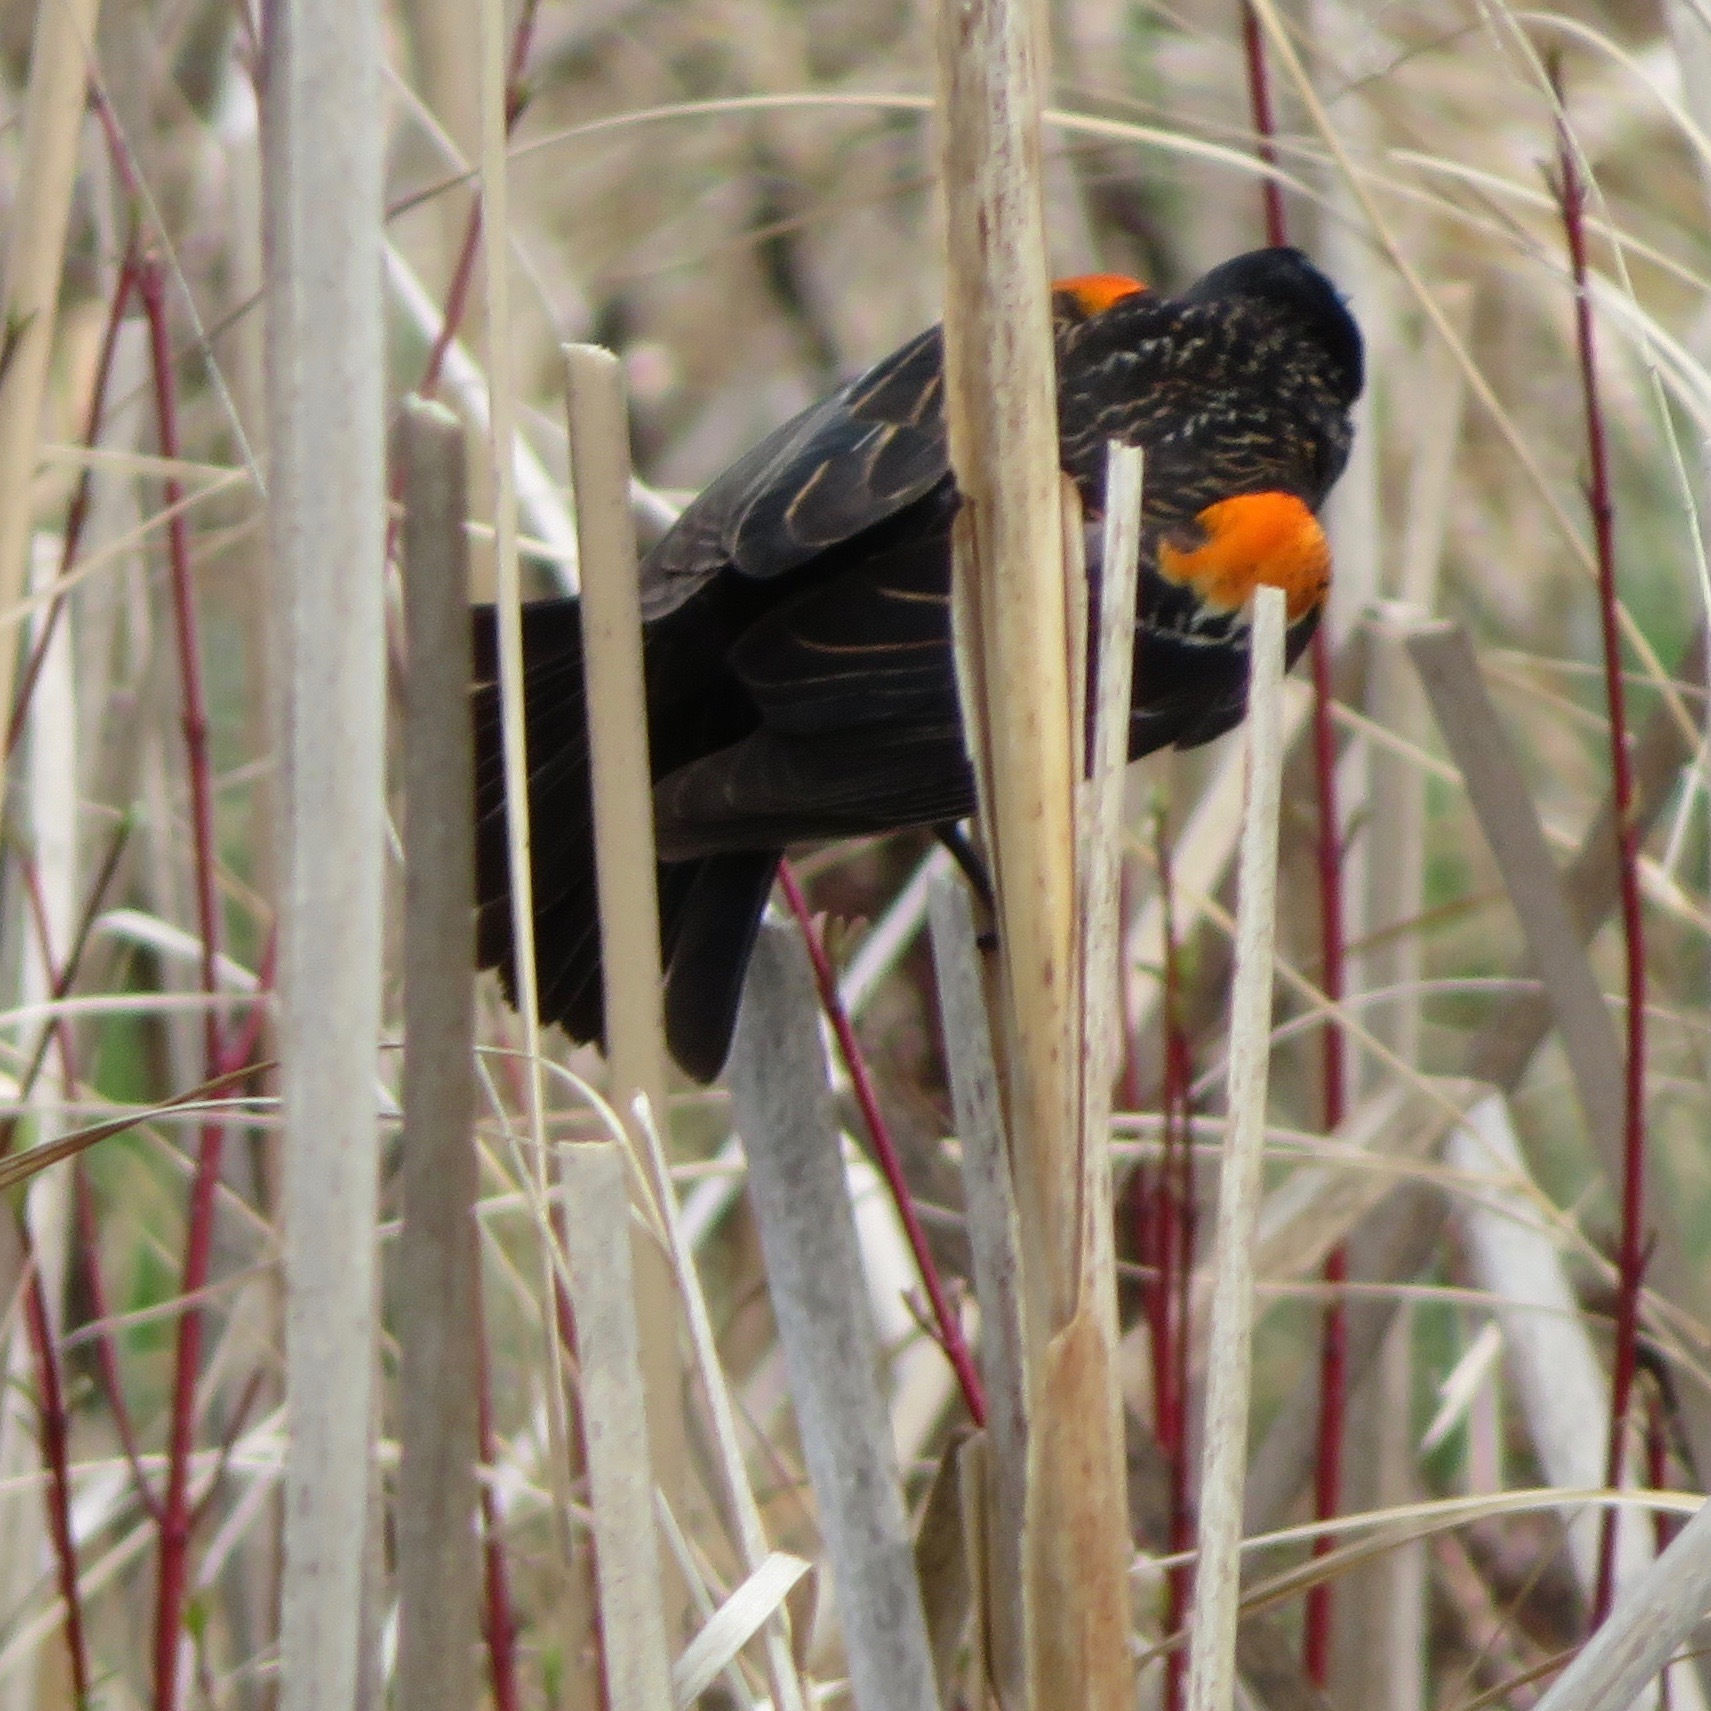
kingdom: Animalia
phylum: Chordata
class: Aves
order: Passeriformes
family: Icteridae
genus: Agelaius
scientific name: Agelaius phoeniceus
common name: Red-winged blackbird
